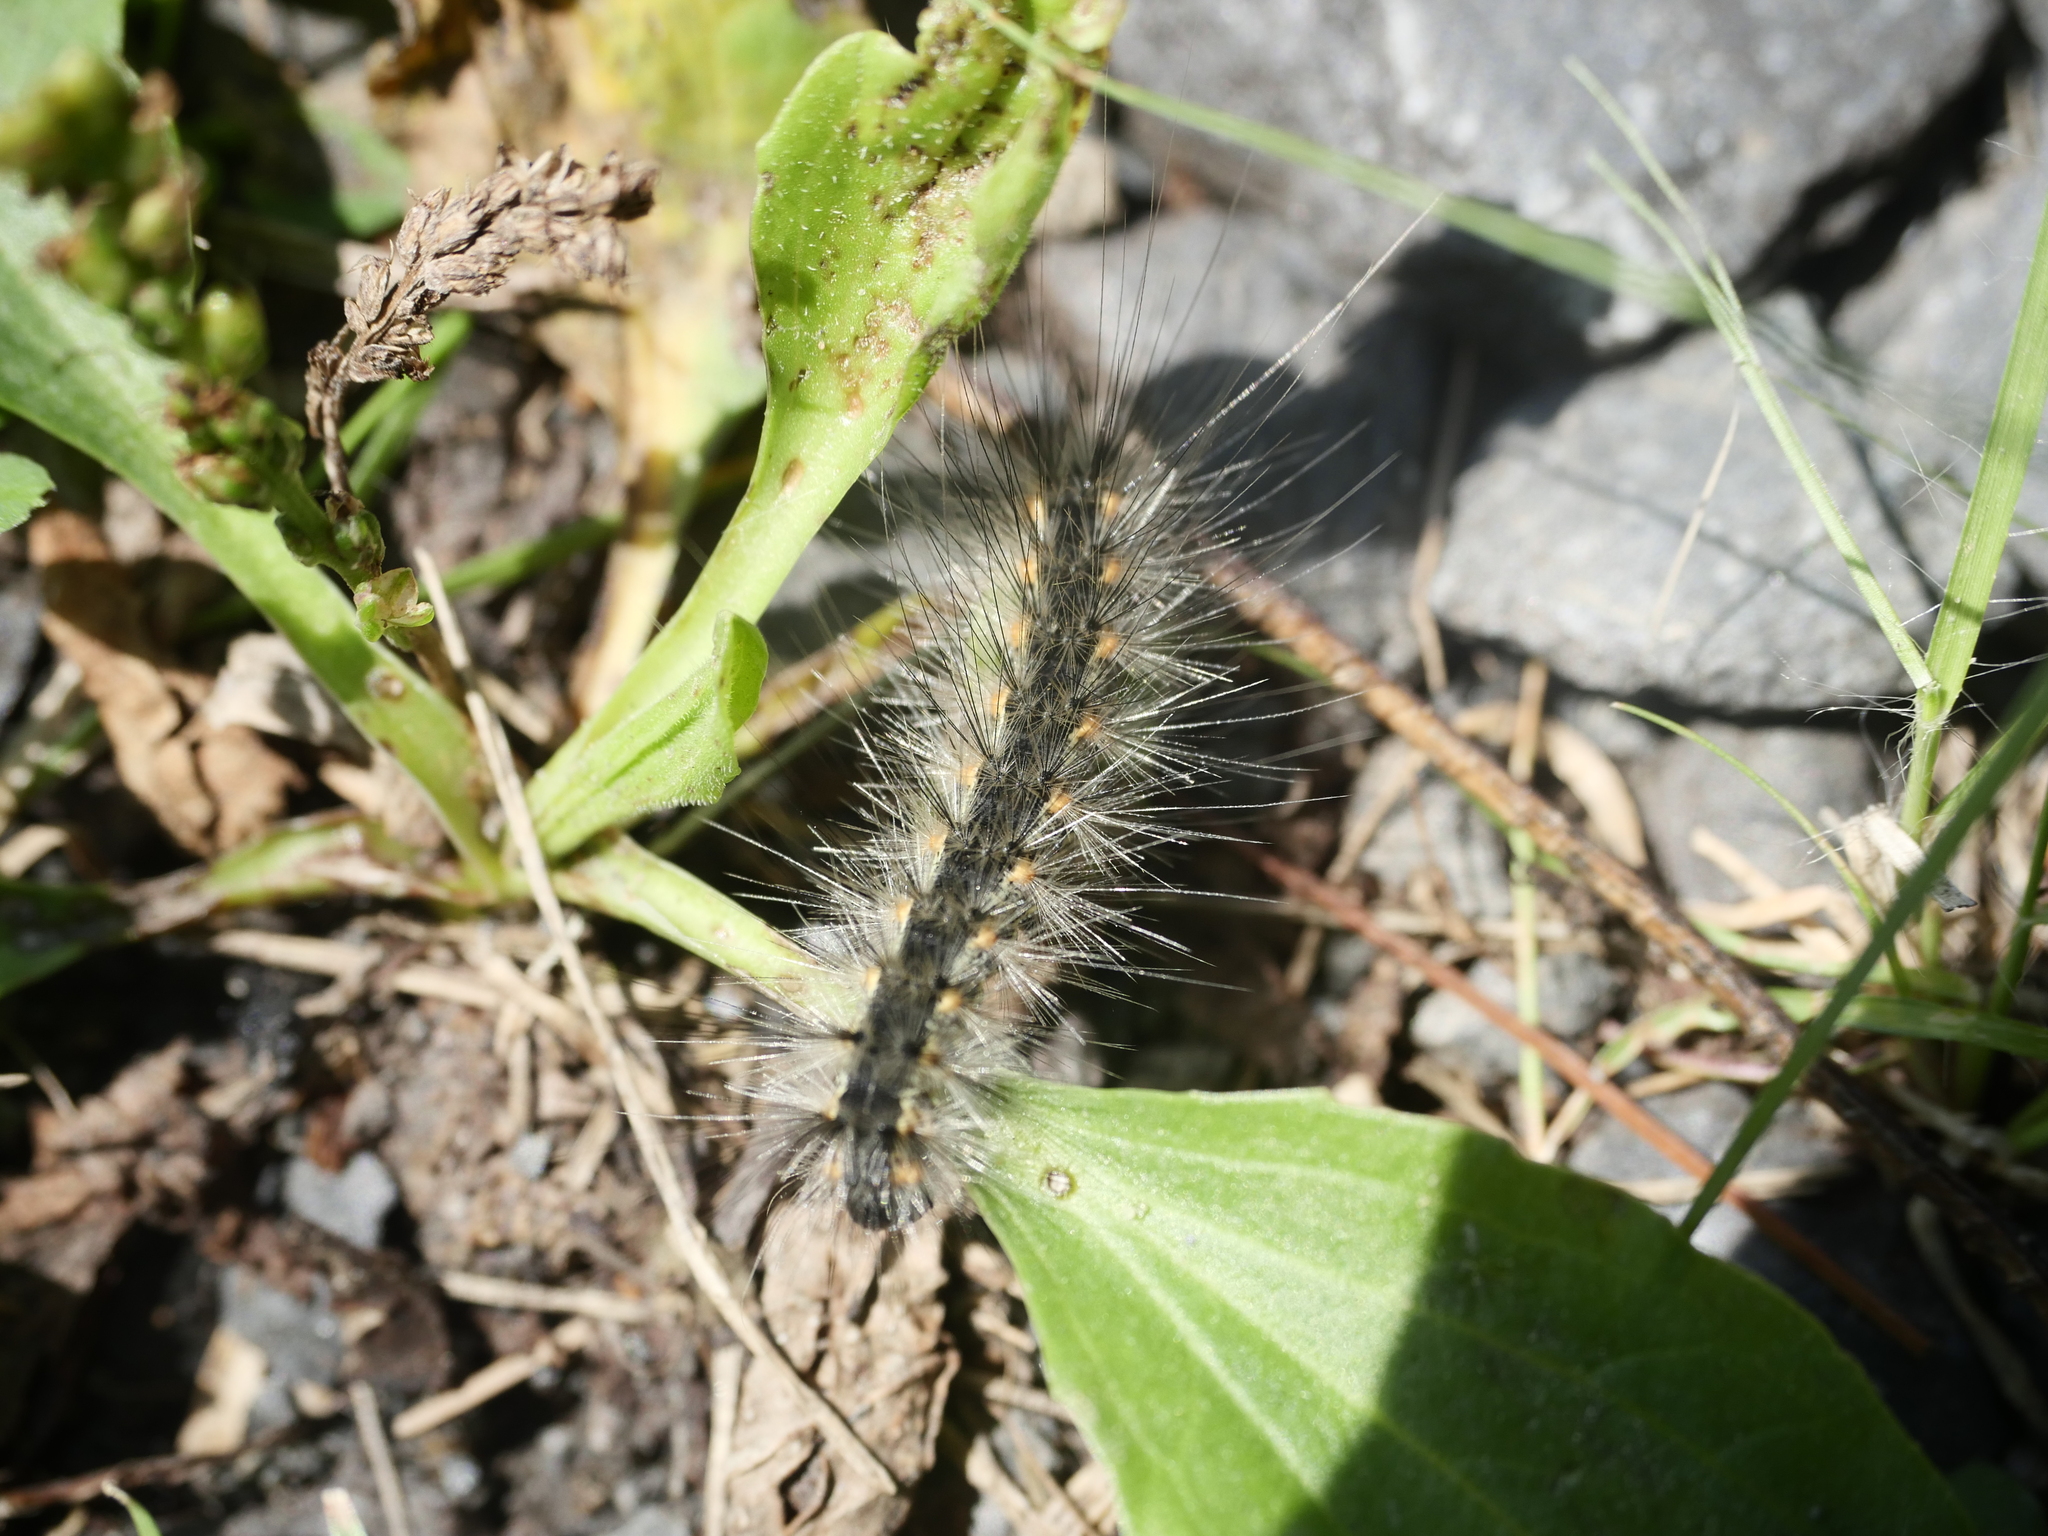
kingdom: Animalia
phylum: Arthropoda
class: Insecta
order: Lepidoptera
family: Erebidae
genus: Hyphantria
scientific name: Hyphantria cunea
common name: American white moth
